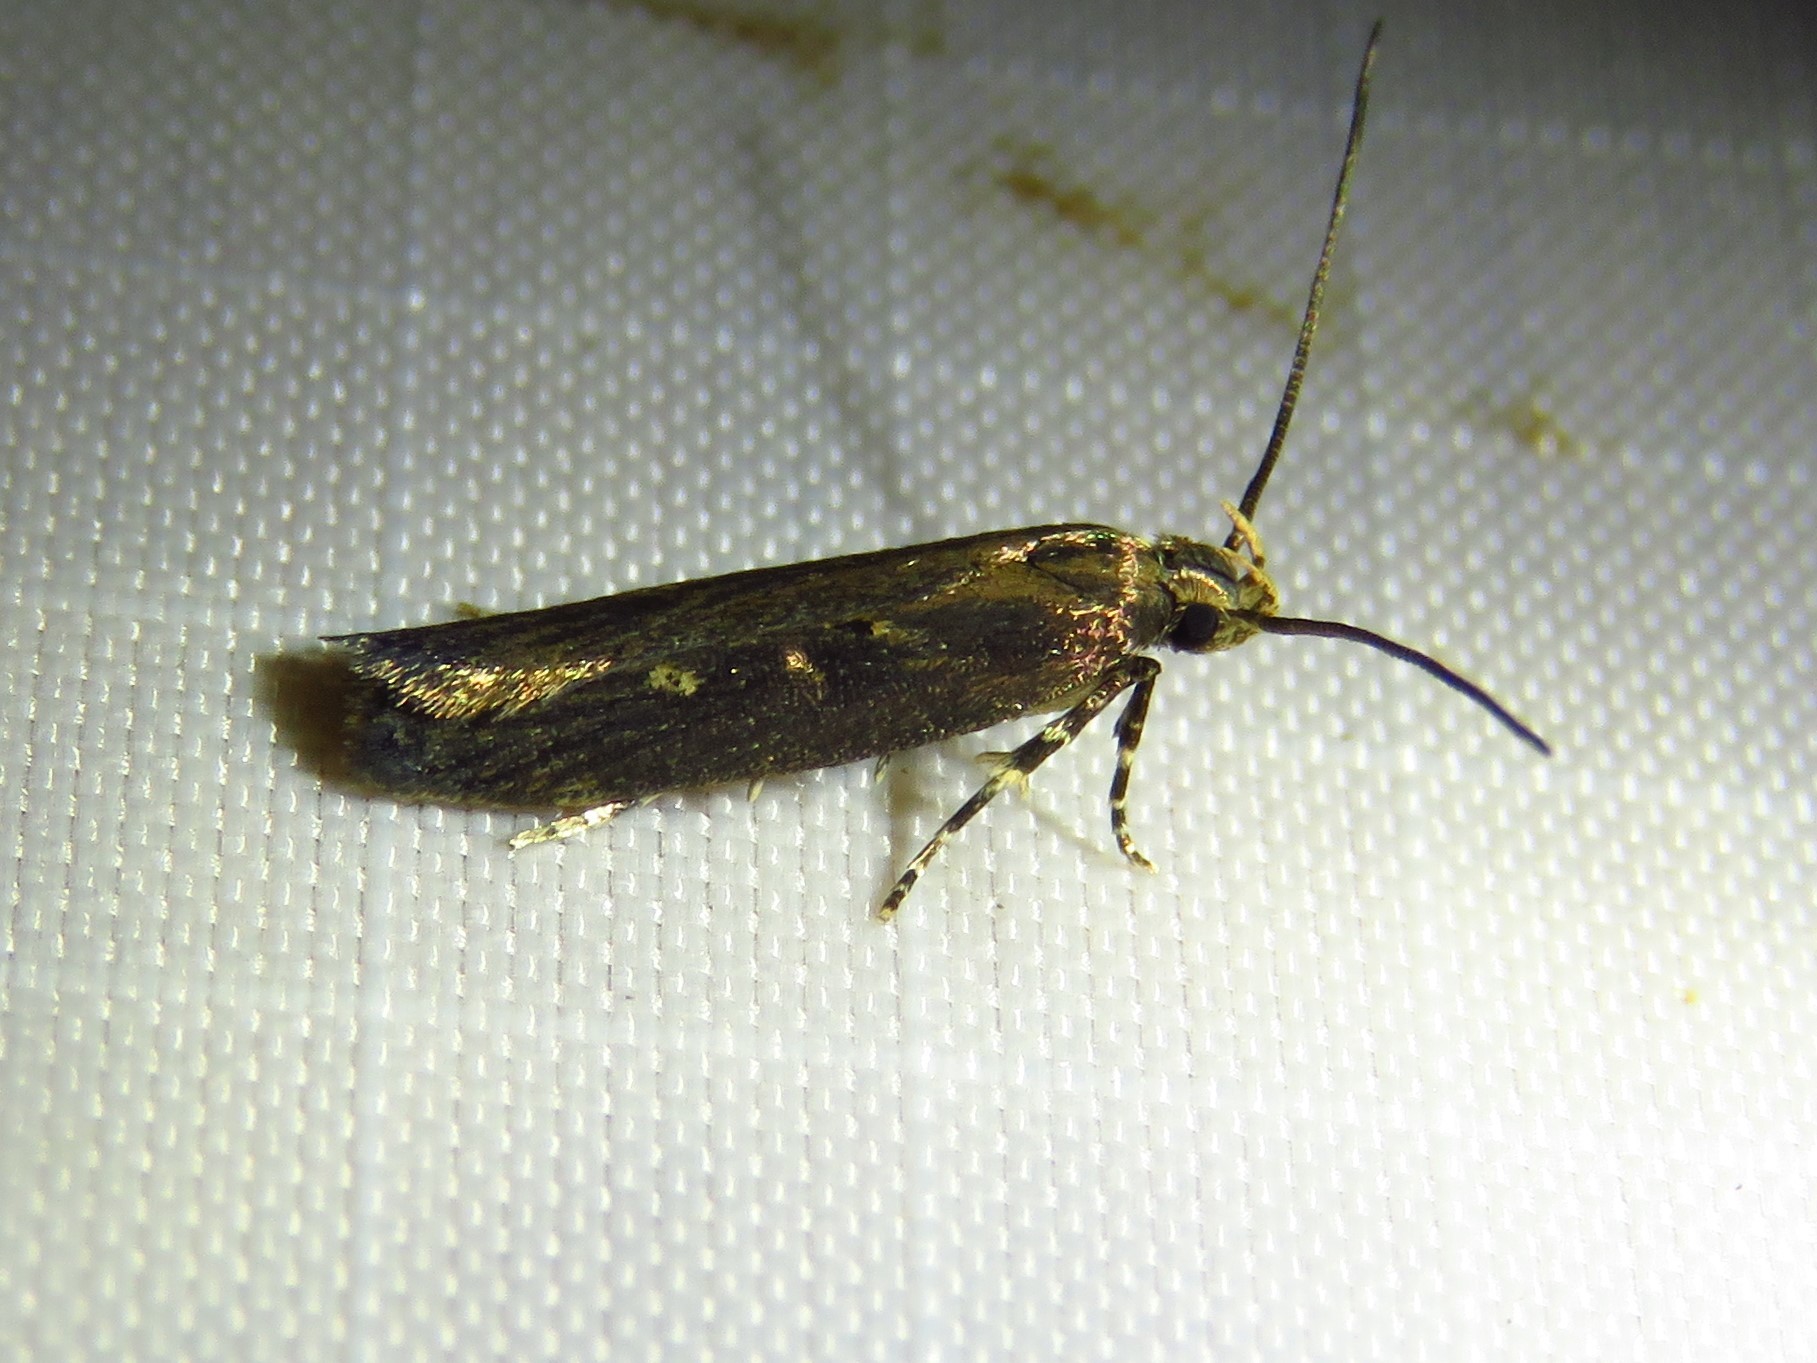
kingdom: Animalia
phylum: Arthropoda
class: Insecta
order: Lepidoptera
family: Gelechiidae
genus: Chionodes
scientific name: Chionodes discoocellella
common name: Eye-ringed chionodes moth
